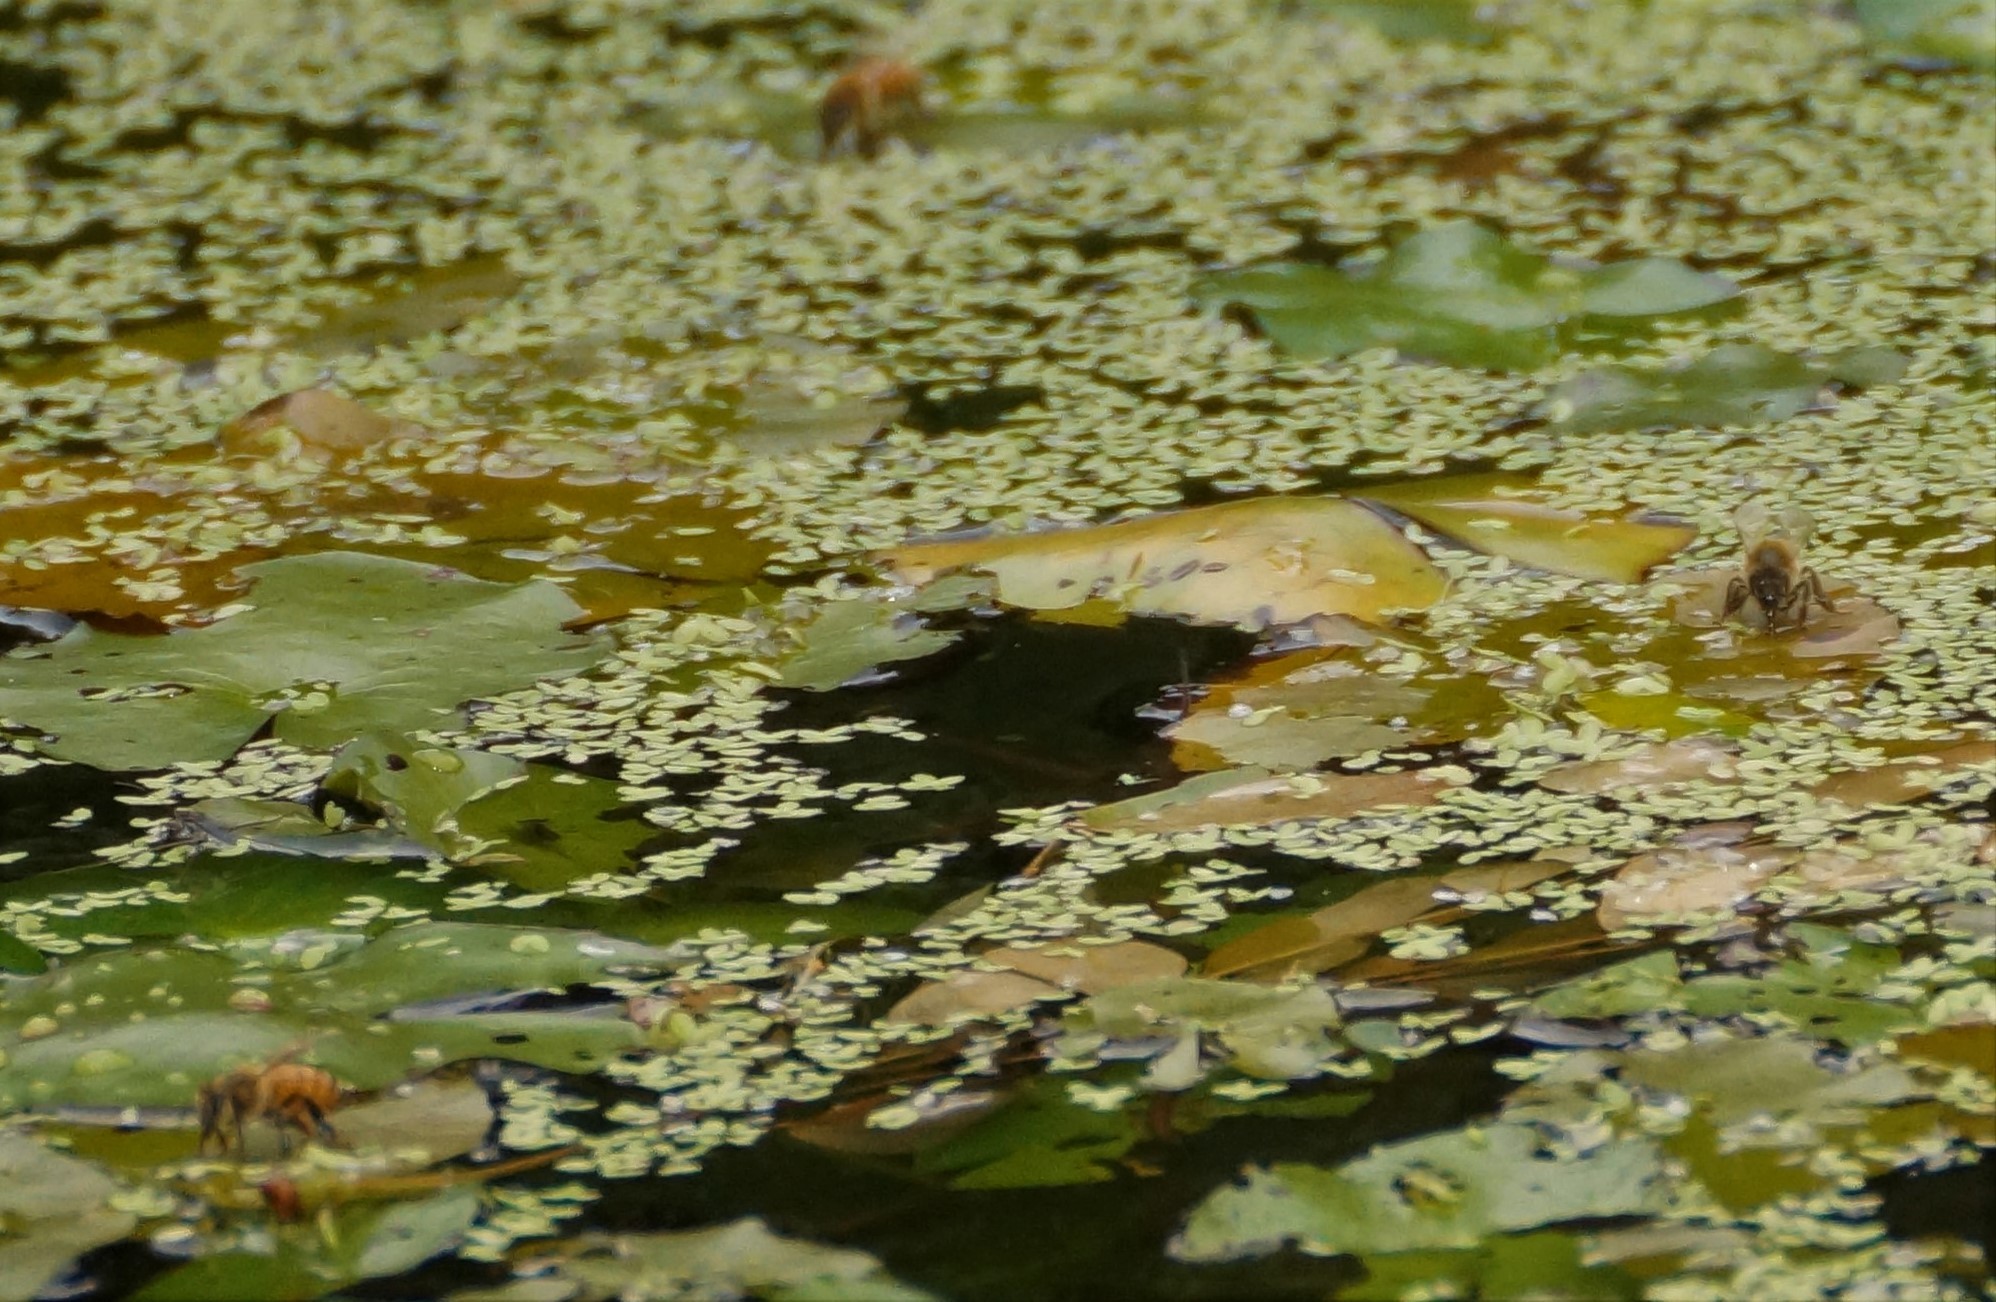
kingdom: Animalia
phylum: Arthropoda
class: Insecta
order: Hymenoptera
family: Apidae
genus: Apis
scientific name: Apis mellifera
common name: Honey bee
